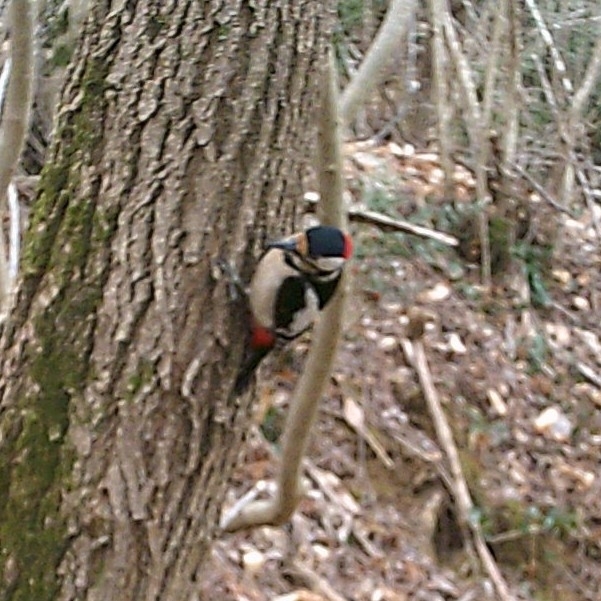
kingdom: Animalia
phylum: Chordata
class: Aves
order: Piciformes
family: Picidae
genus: Dendrocopos
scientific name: Dendrocopos major
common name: Great spotted woodpecker
